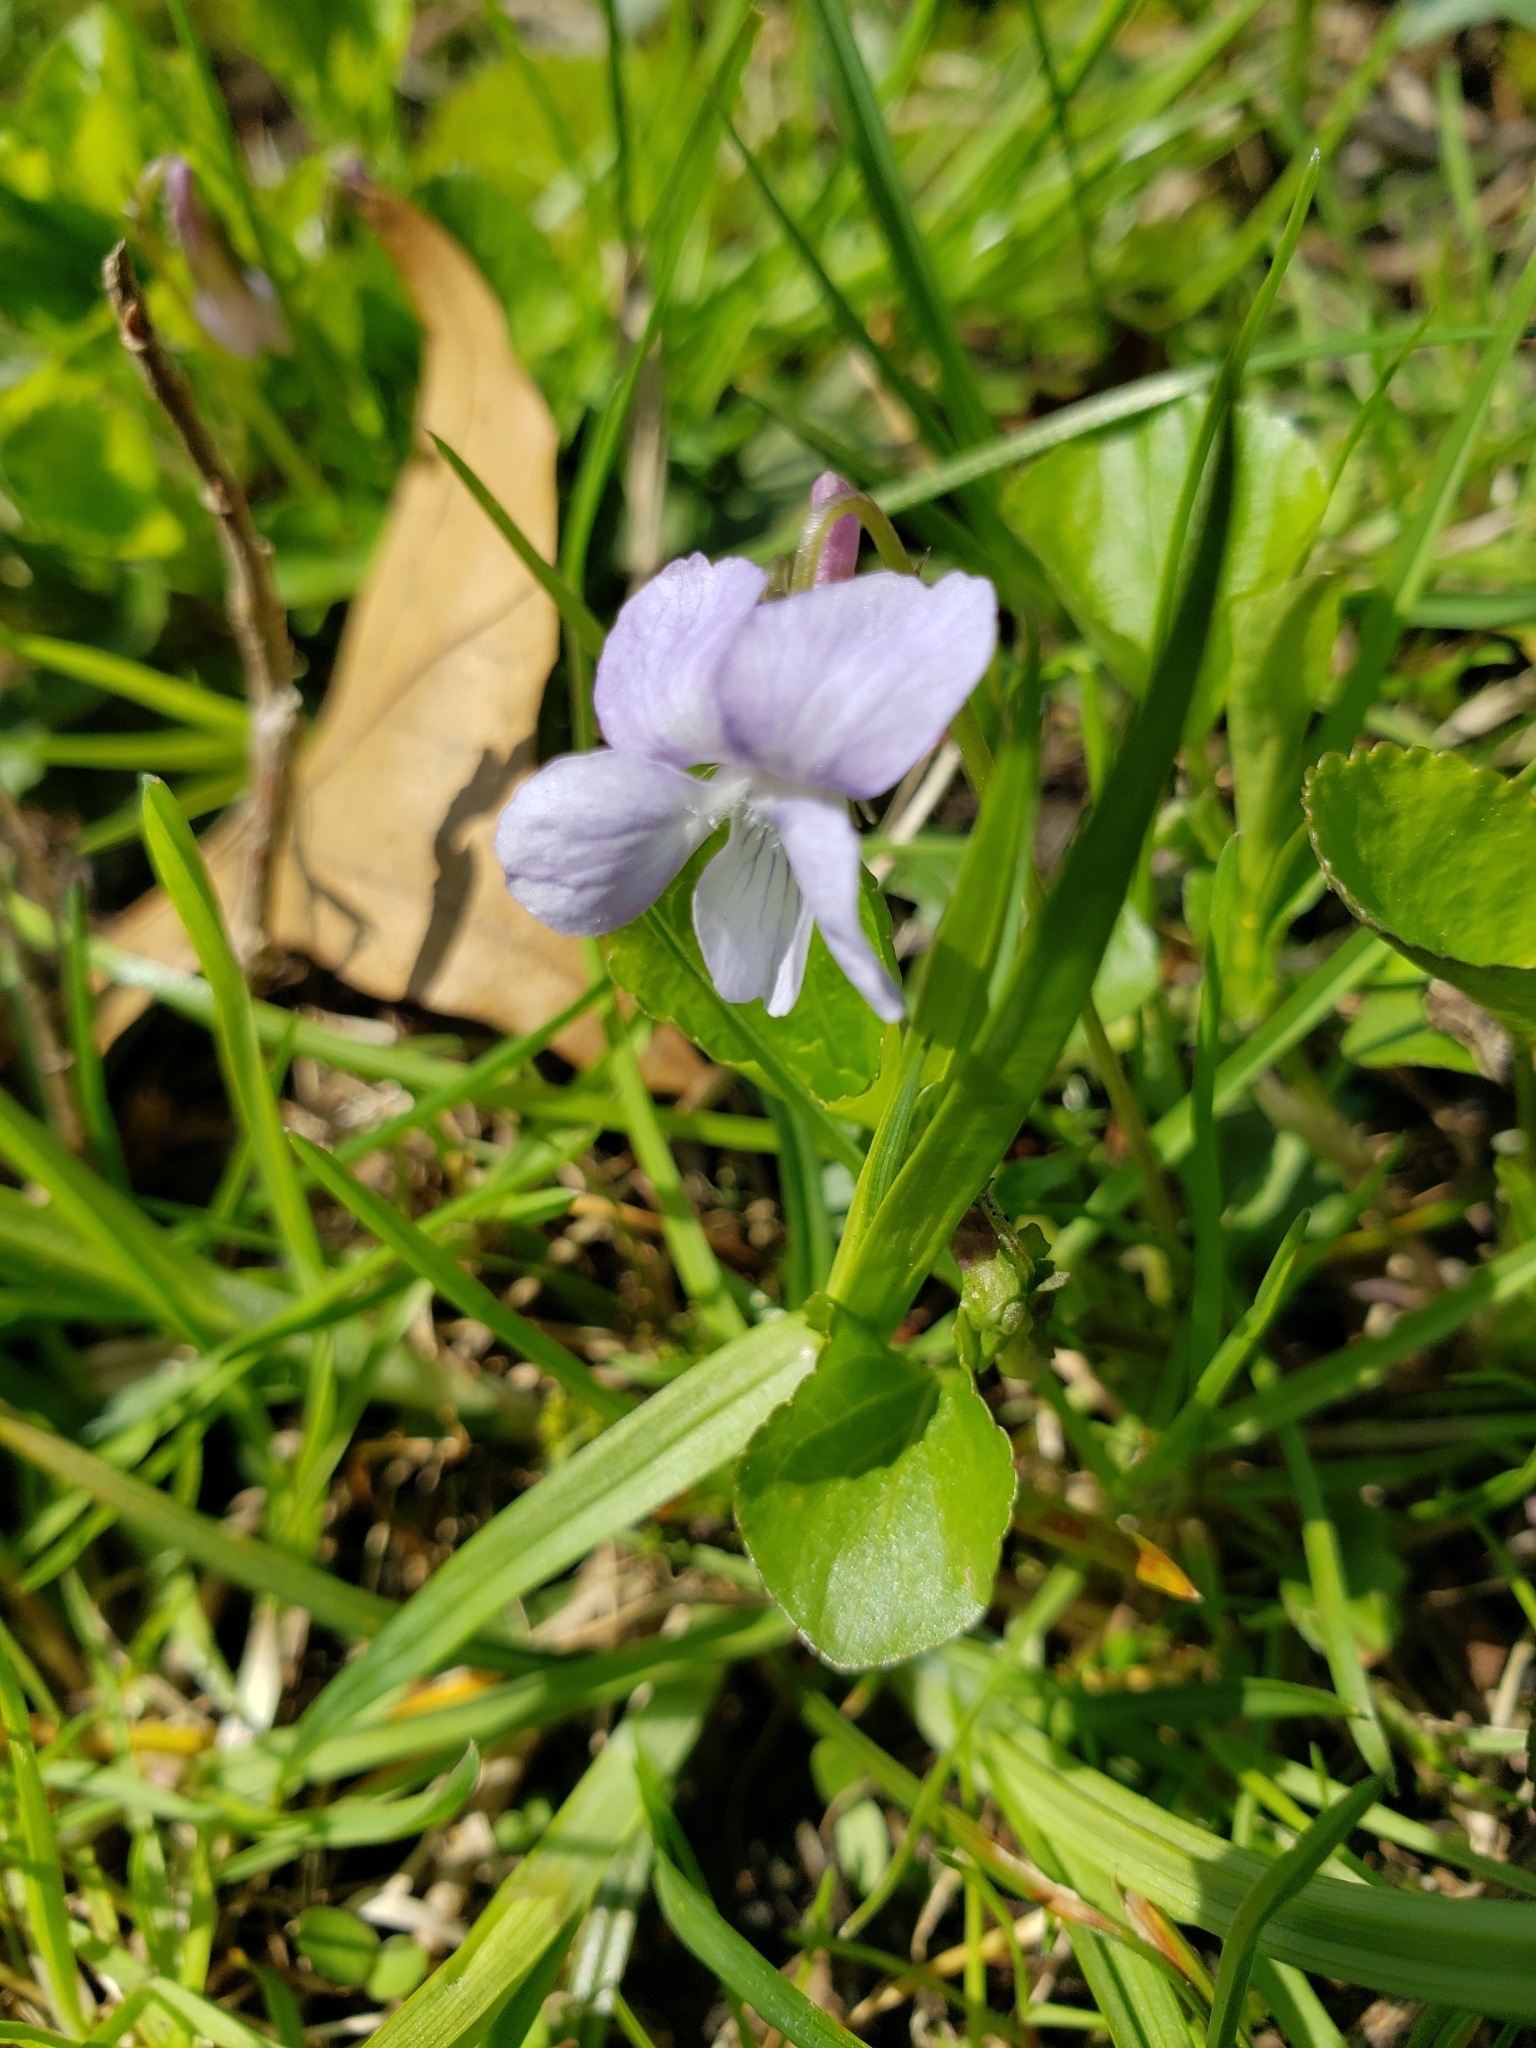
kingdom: Plantae
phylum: Tracheophyta
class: Magnoliopsida
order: Malpighiales
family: Violaceae
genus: Viola
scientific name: Viola labradorica
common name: Labrador violet
